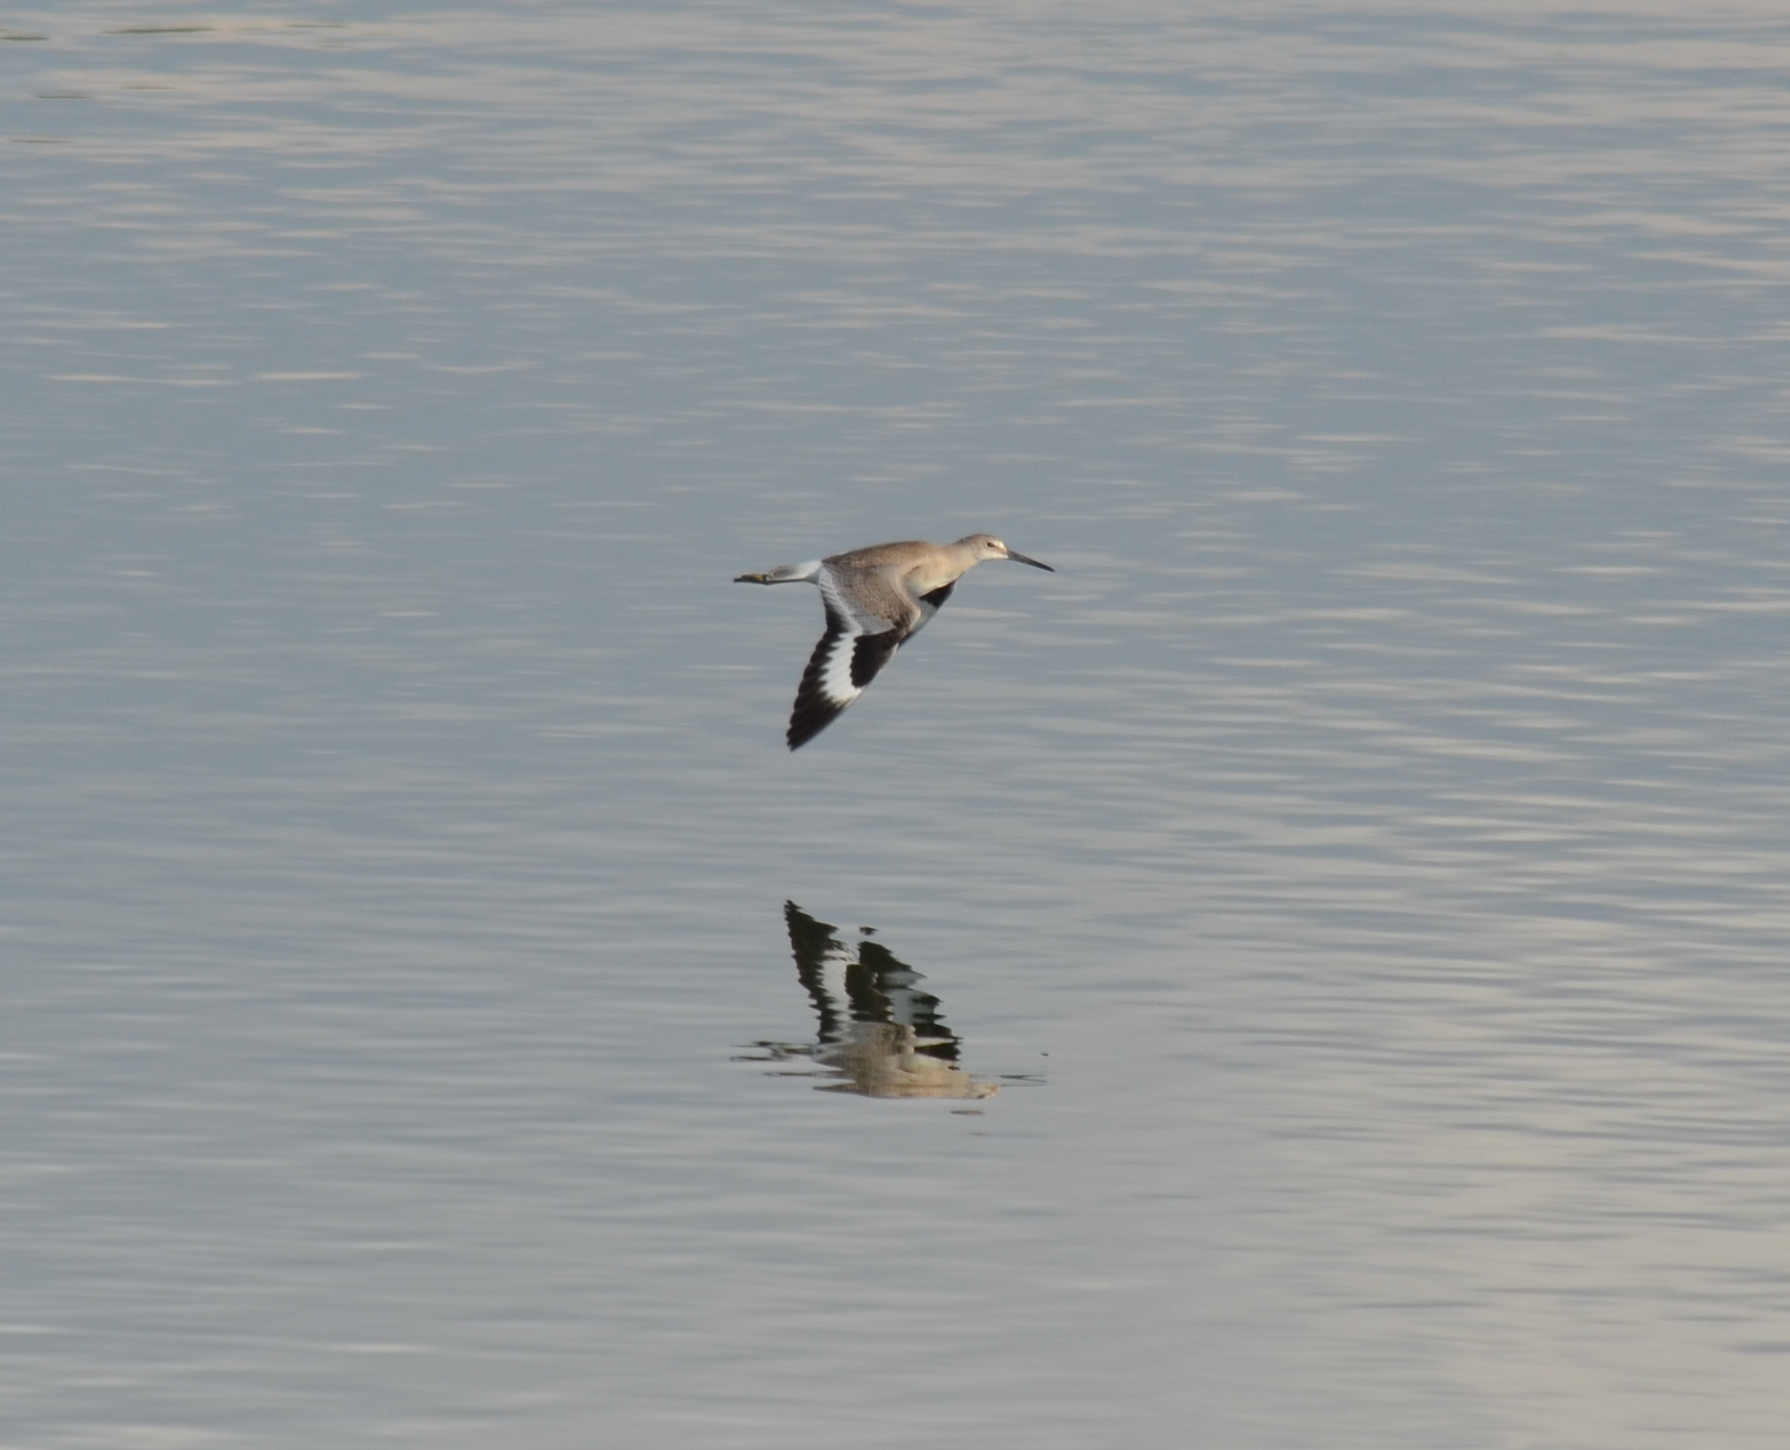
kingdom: Animalia
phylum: Chordata
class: Aves
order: Charadriiformes
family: Scolopacidae
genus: Tringa
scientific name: Tringa semipalmata
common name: Willet
